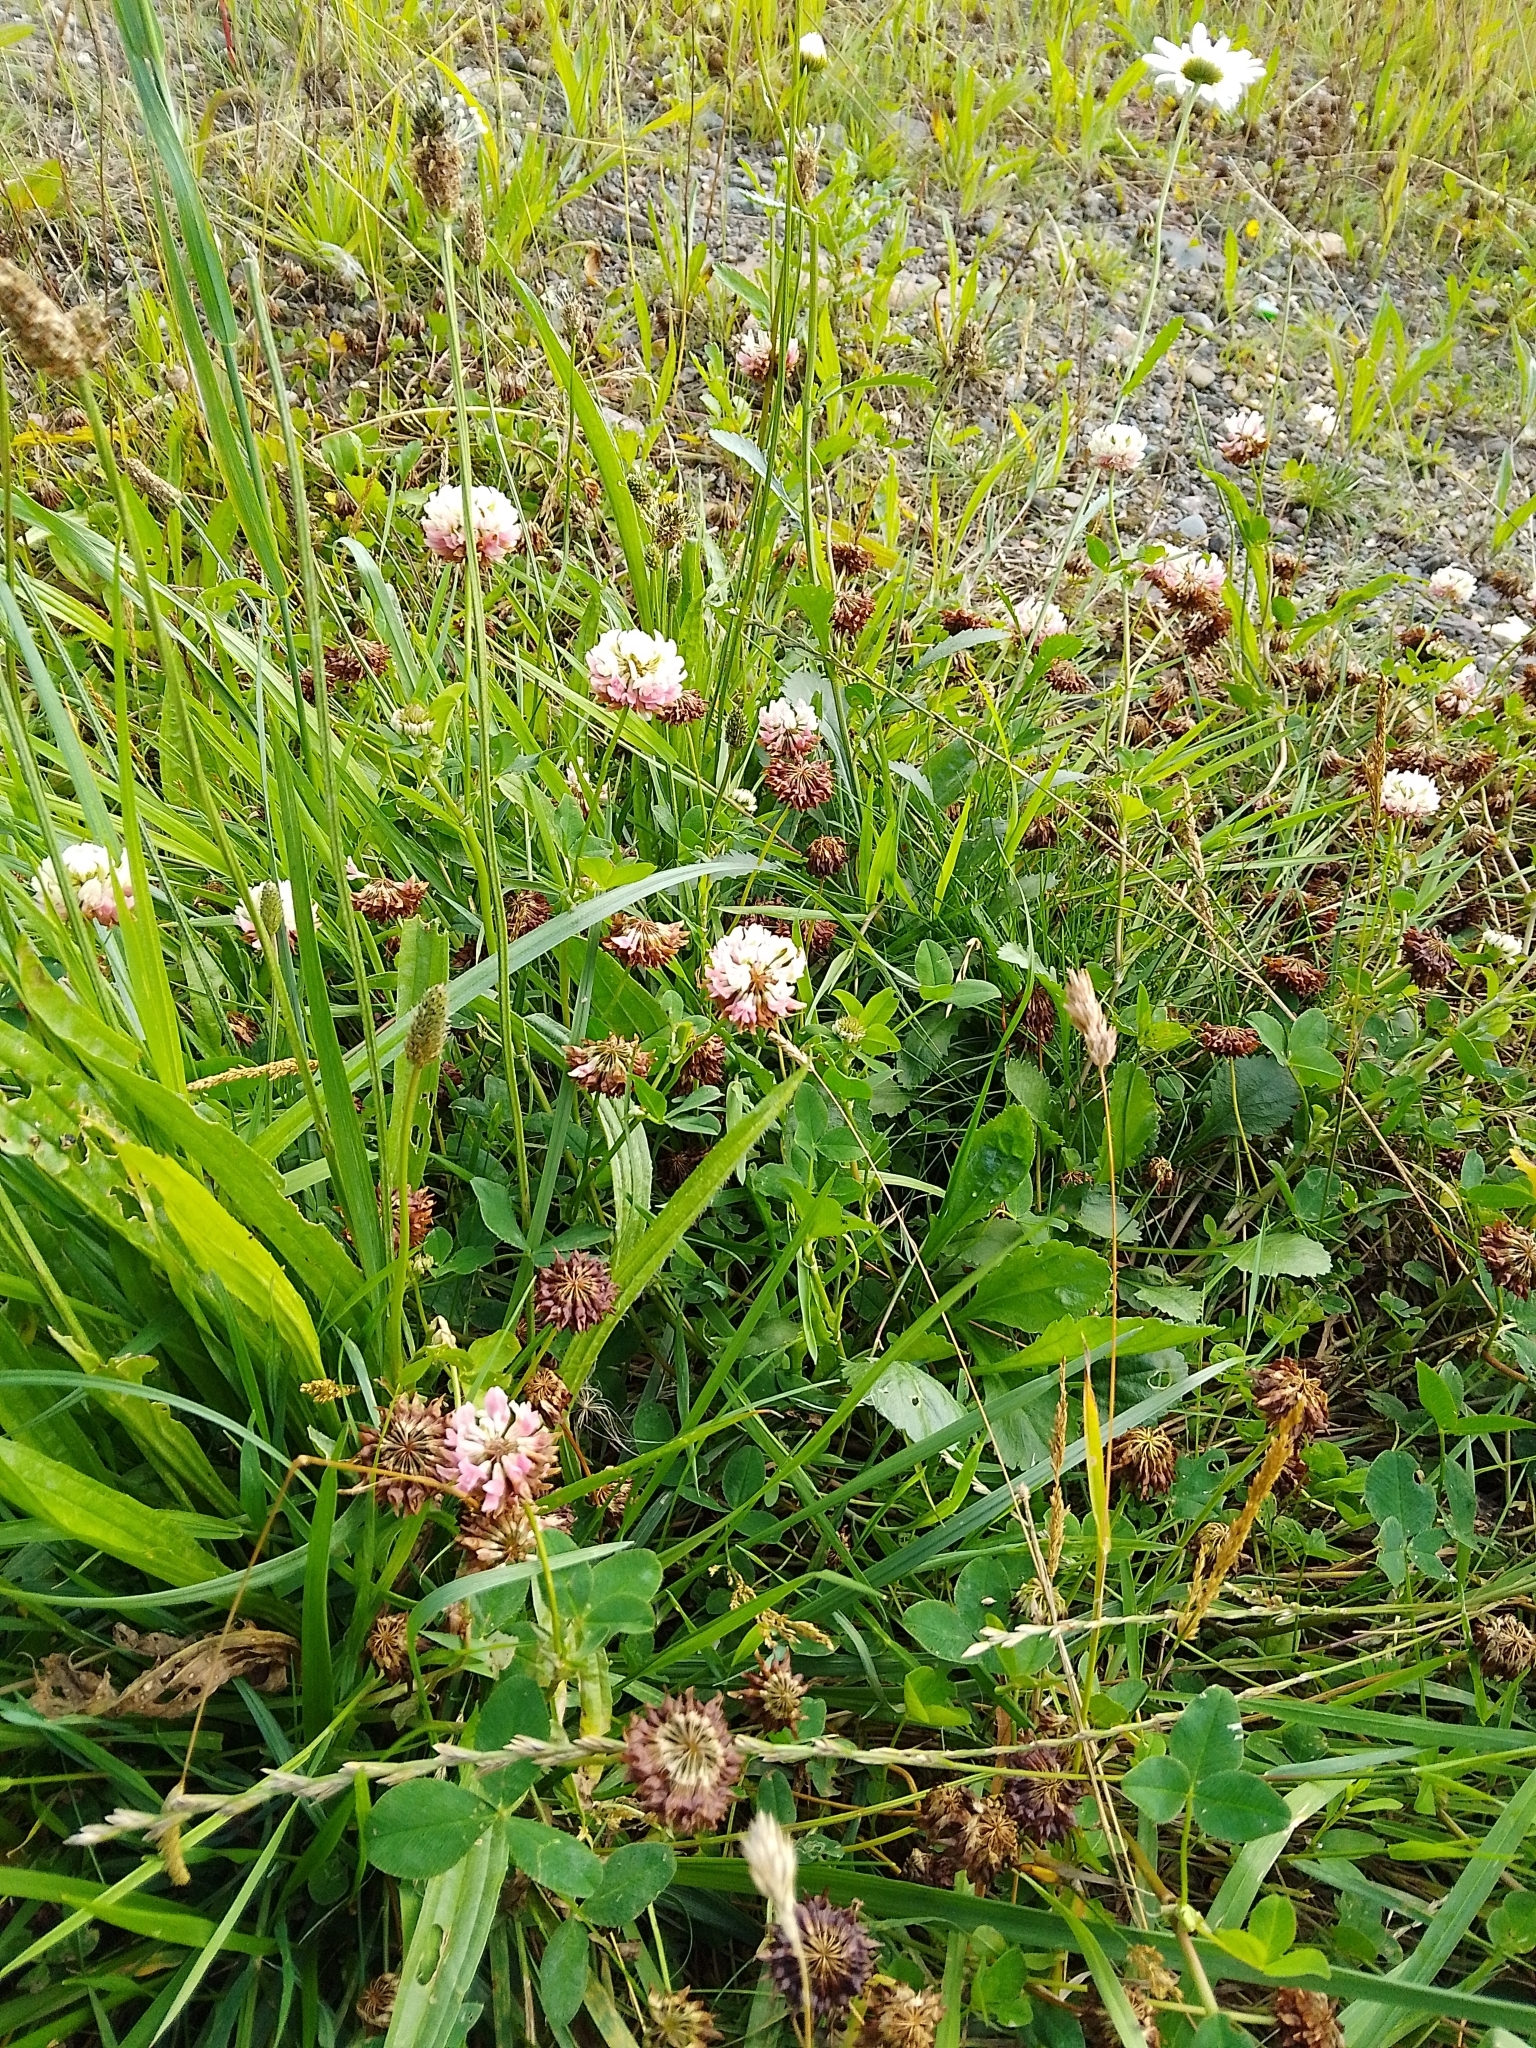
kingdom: Plantae
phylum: Tracheophyta
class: Magnoliopsida
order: Fabales
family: Fabaceae
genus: Trifolium
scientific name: Trifolium hybridum
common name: Alsike clover
